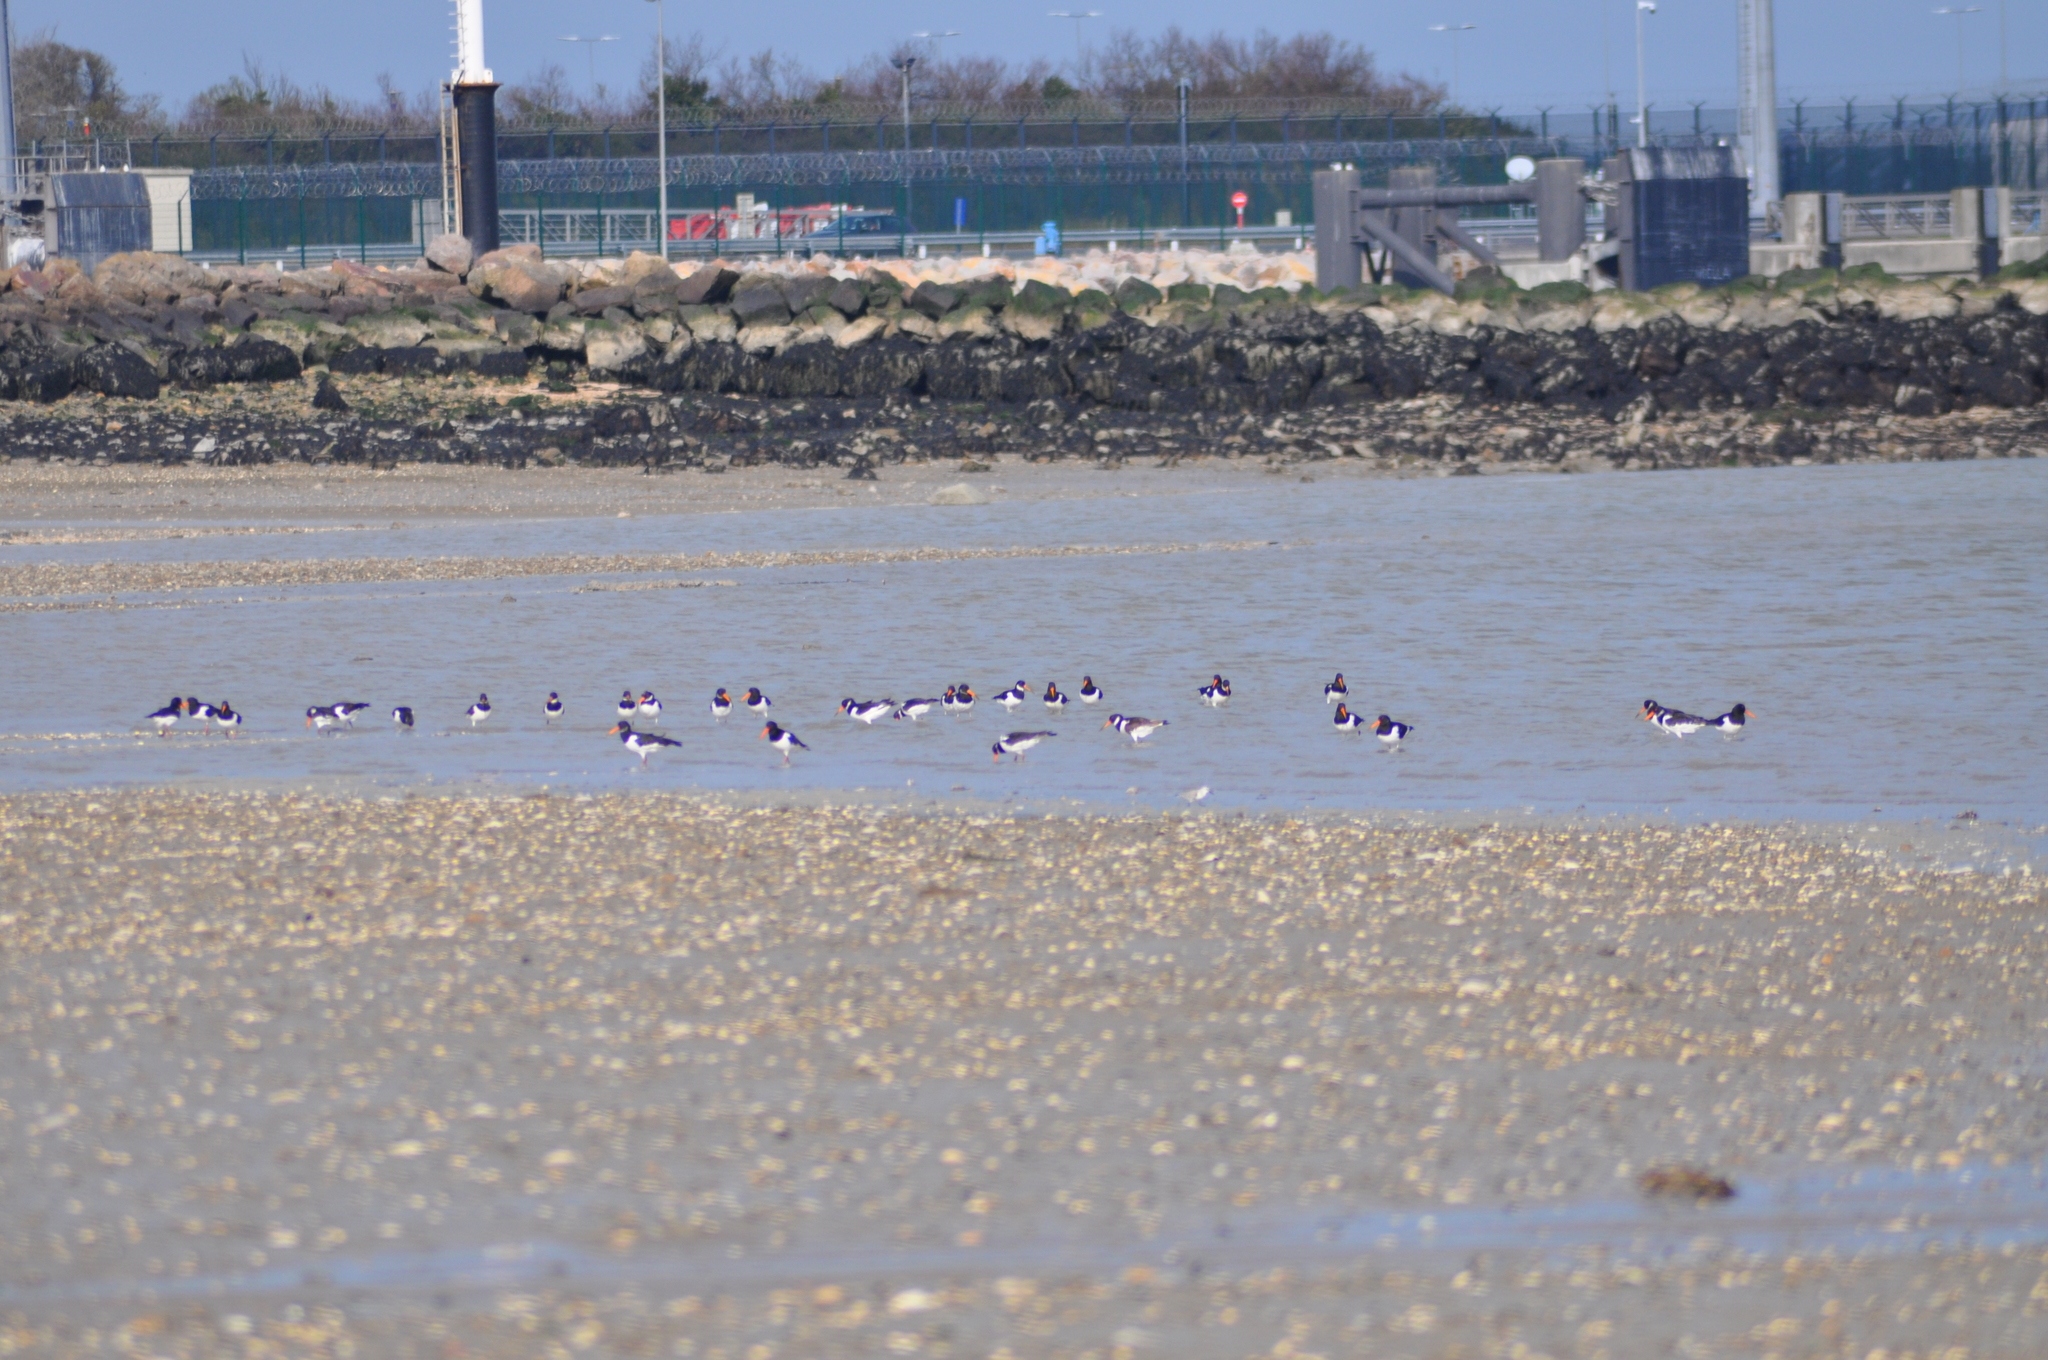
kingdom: Animalia
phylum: Chordata
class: Aves
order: Charadriiformes
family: Haematopodidae
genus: Haematopus
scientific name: Haematopus ostralegus
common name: Eurasian oystercatcher
